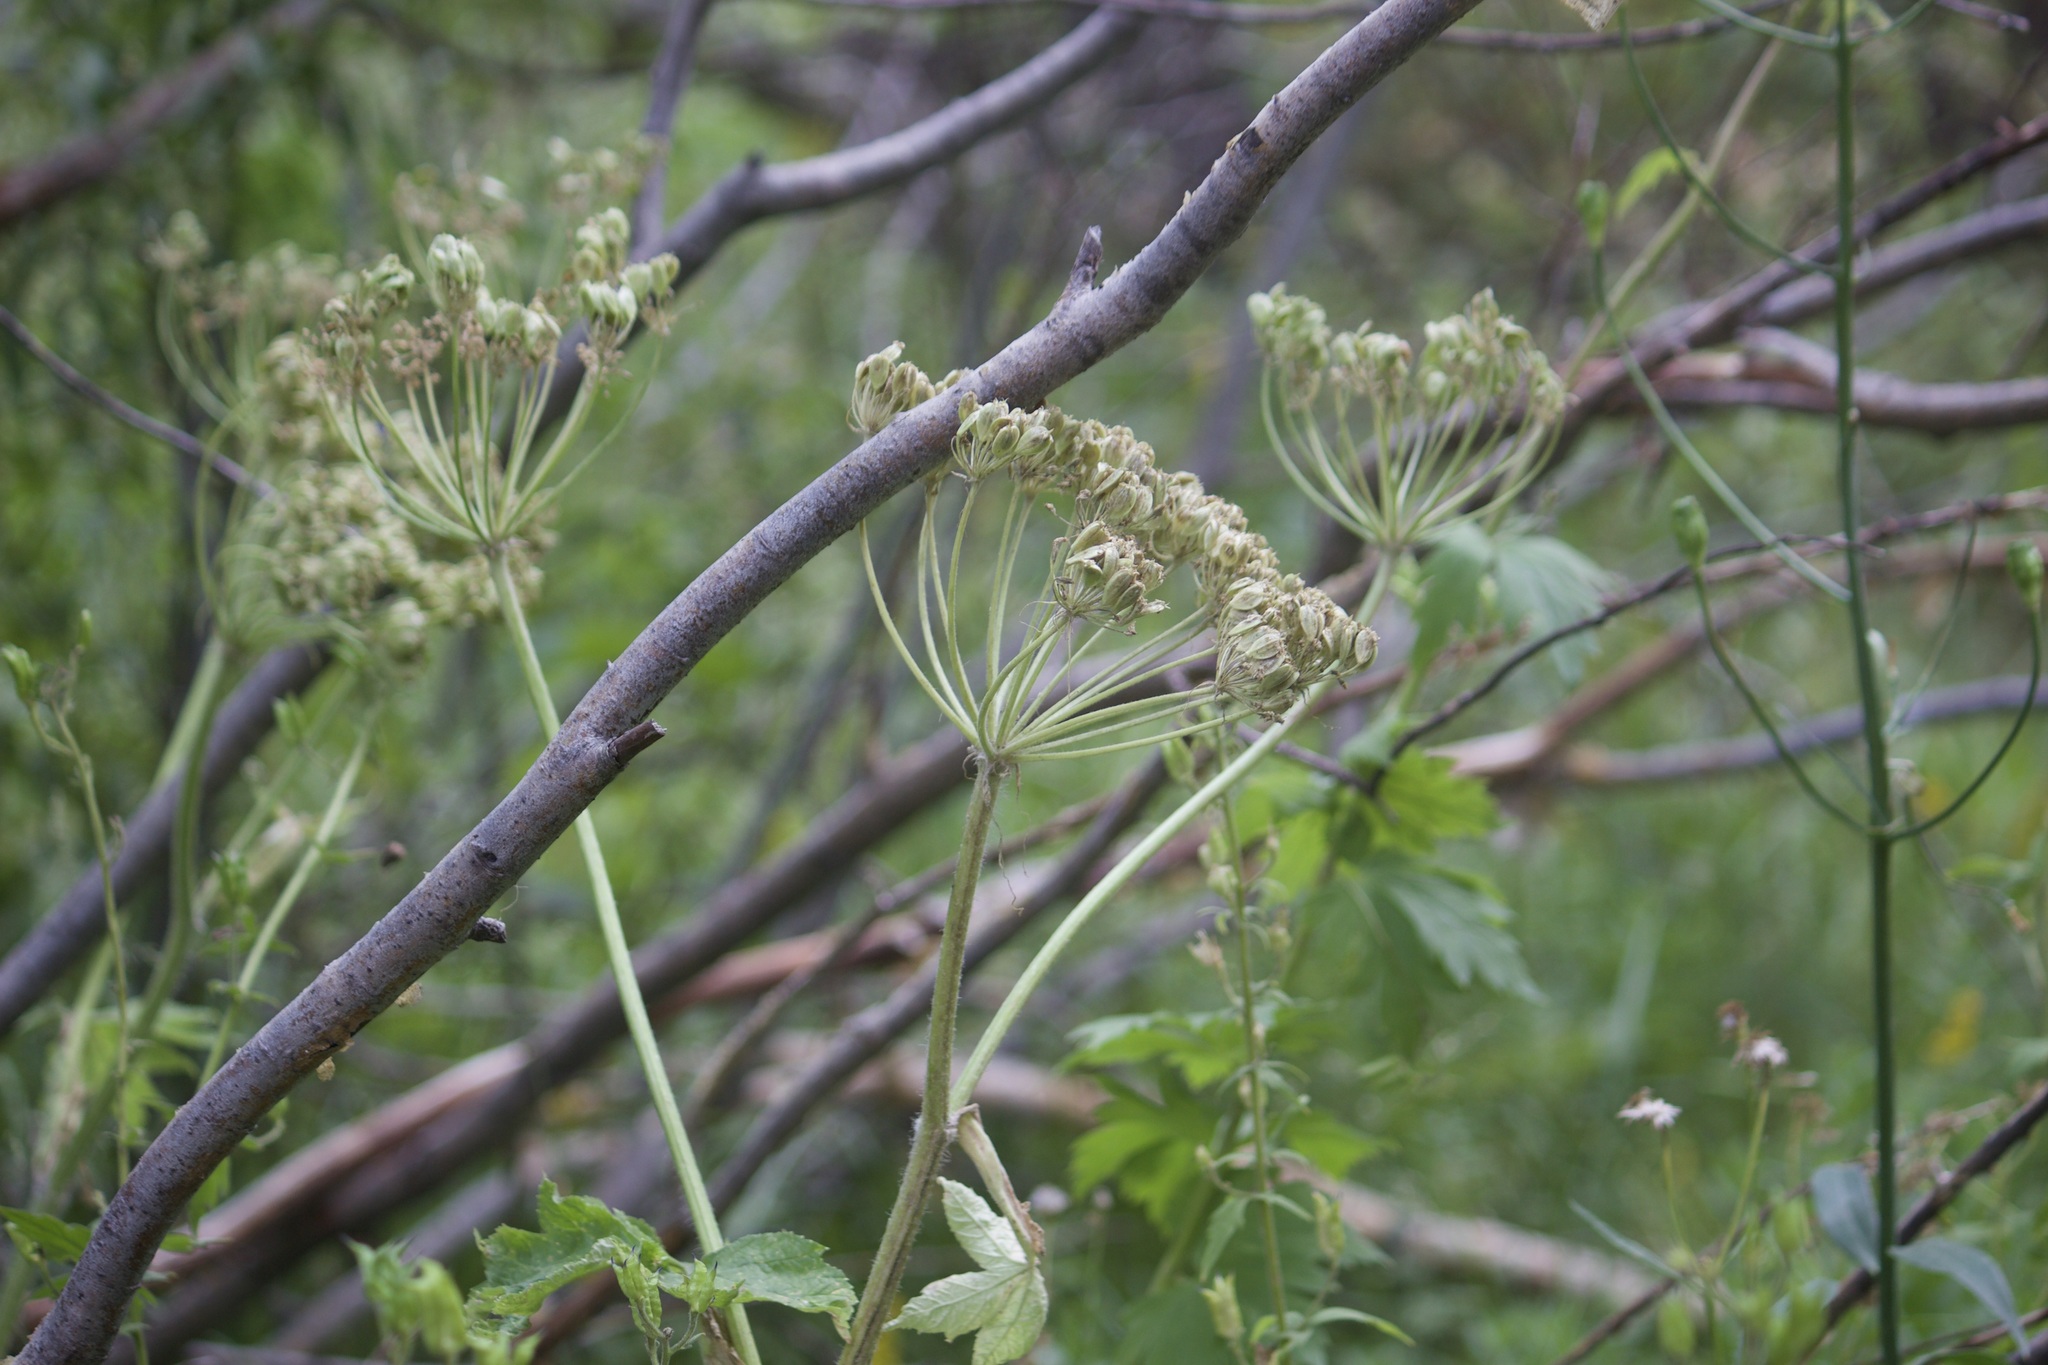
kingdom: Plantae
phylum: Tracheophyta
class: Magnoliopsida
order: Apiales
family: Apiaceae
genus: Heracleum
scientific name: Heracleum maximum
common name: American cow parsnip
